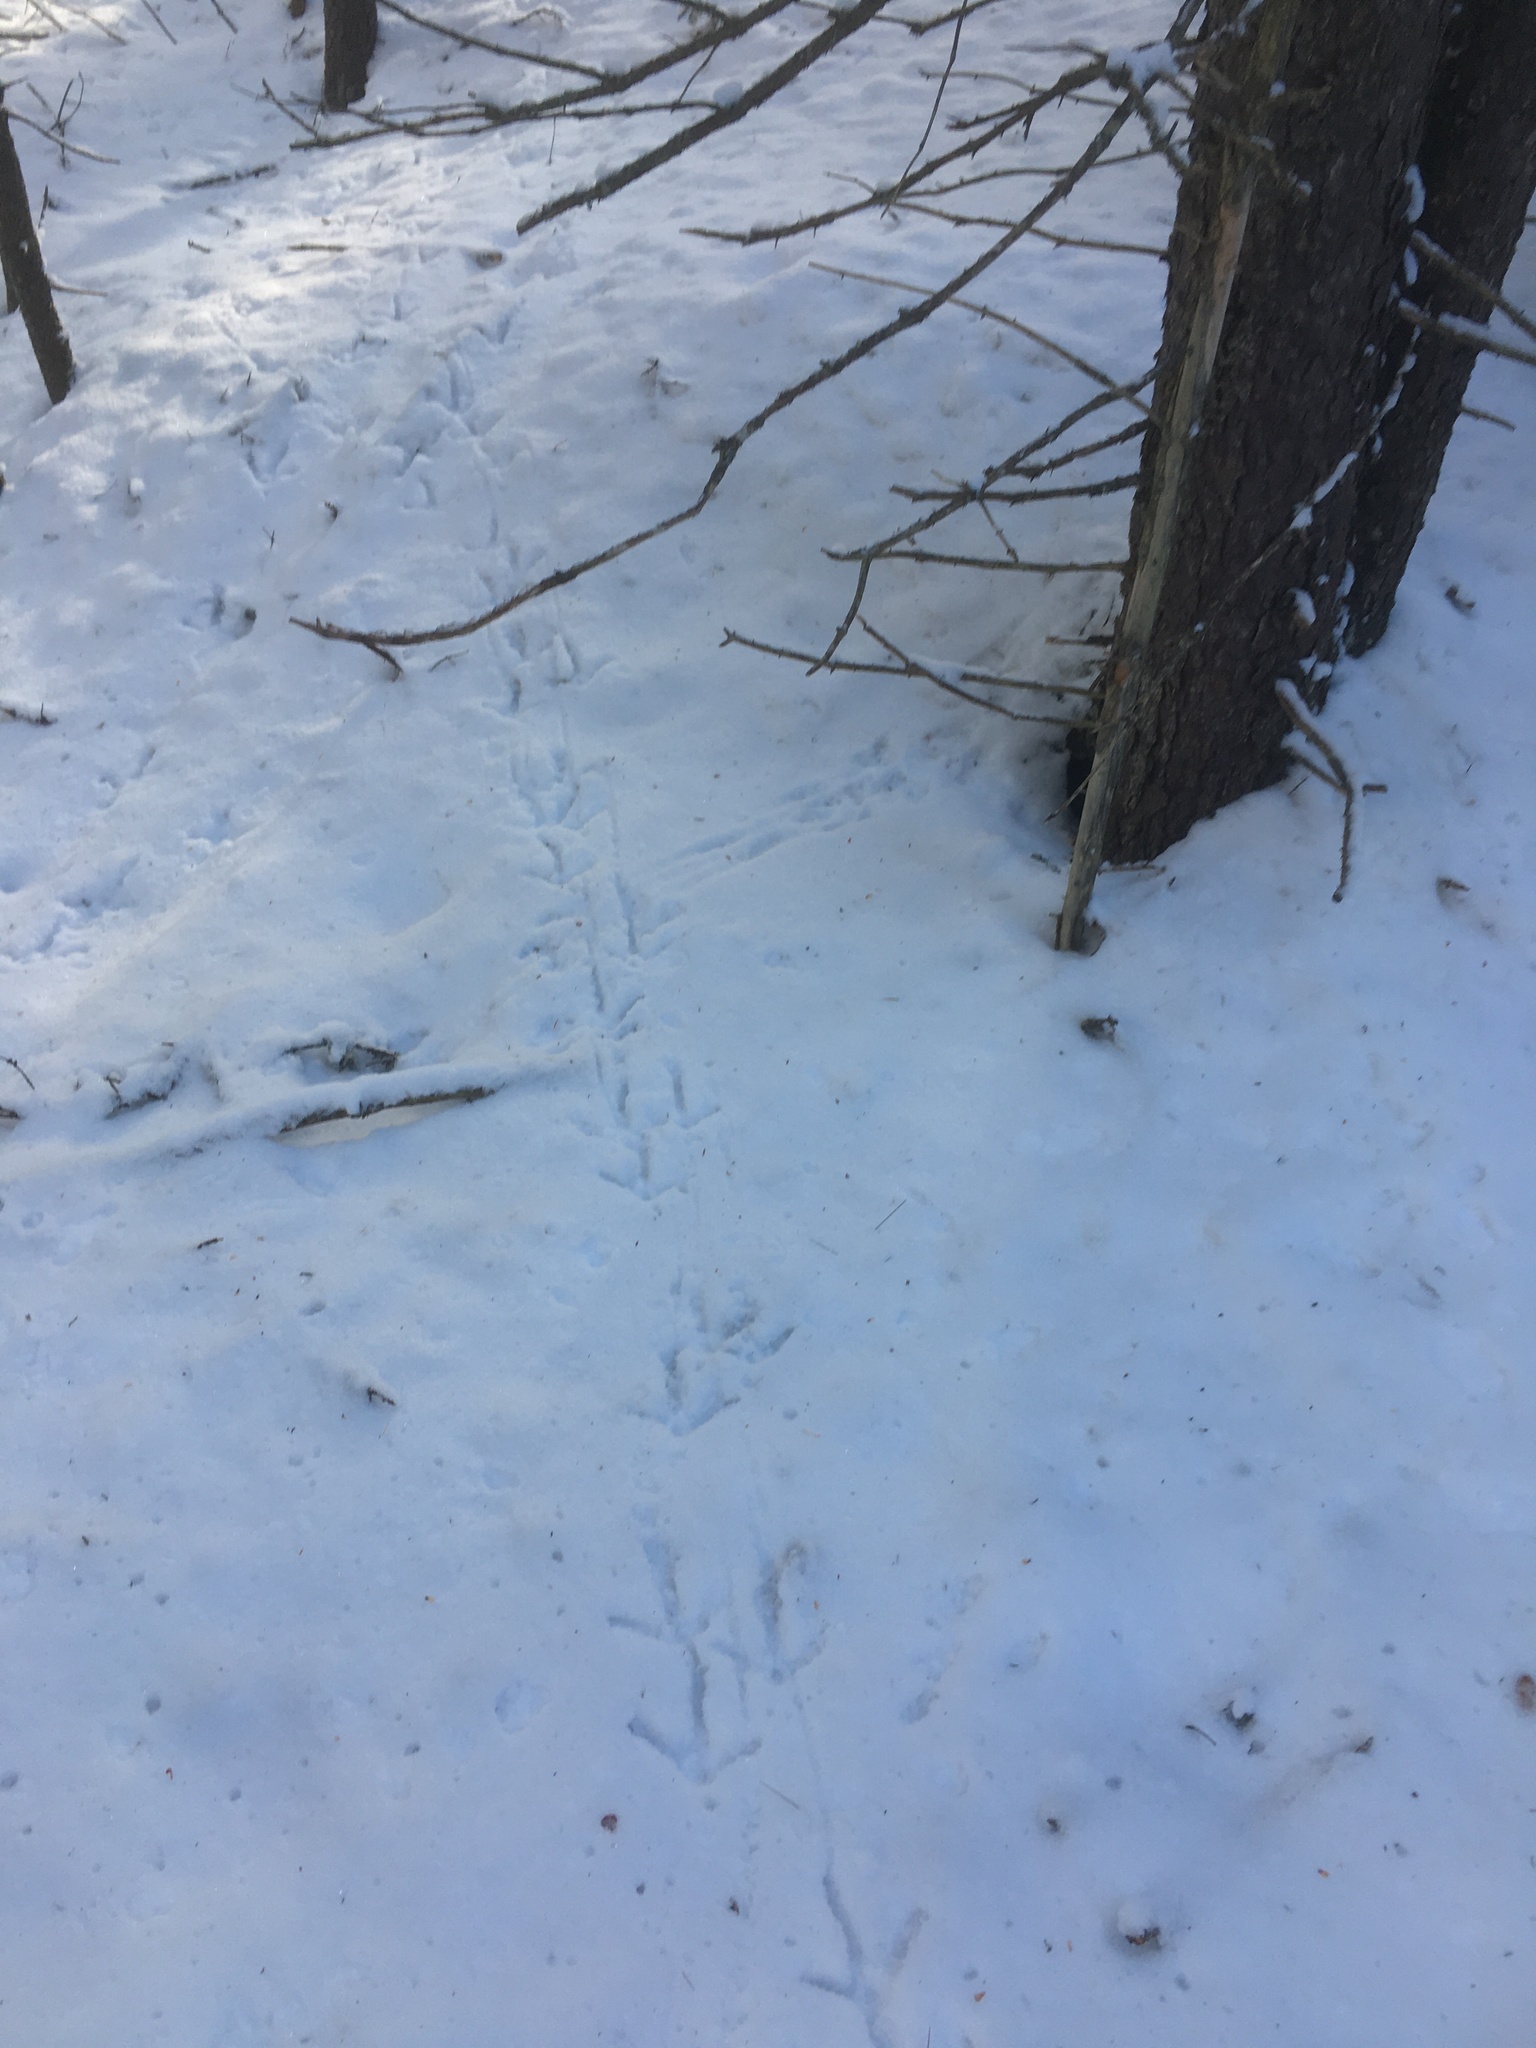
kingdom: Animalia
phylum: Chordata
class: Aves
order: Galliformes
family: Phasianidae
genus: Meleagris
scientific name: Meleagris gallopavo
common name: Wild turkey
